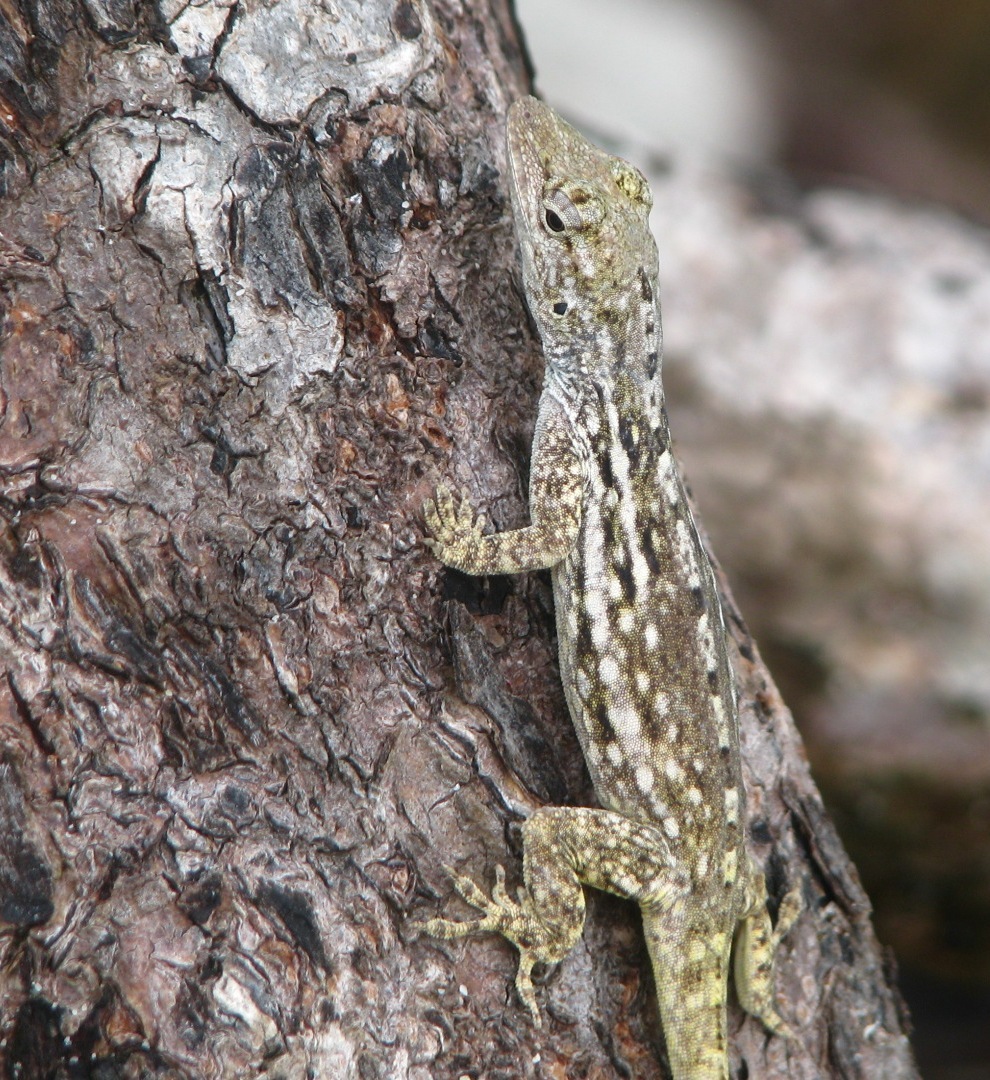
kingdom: Animalia
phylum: Chordata
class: Squamata
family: Dactyloidae
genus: Anolis
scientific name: Anolis charlesmyersi
